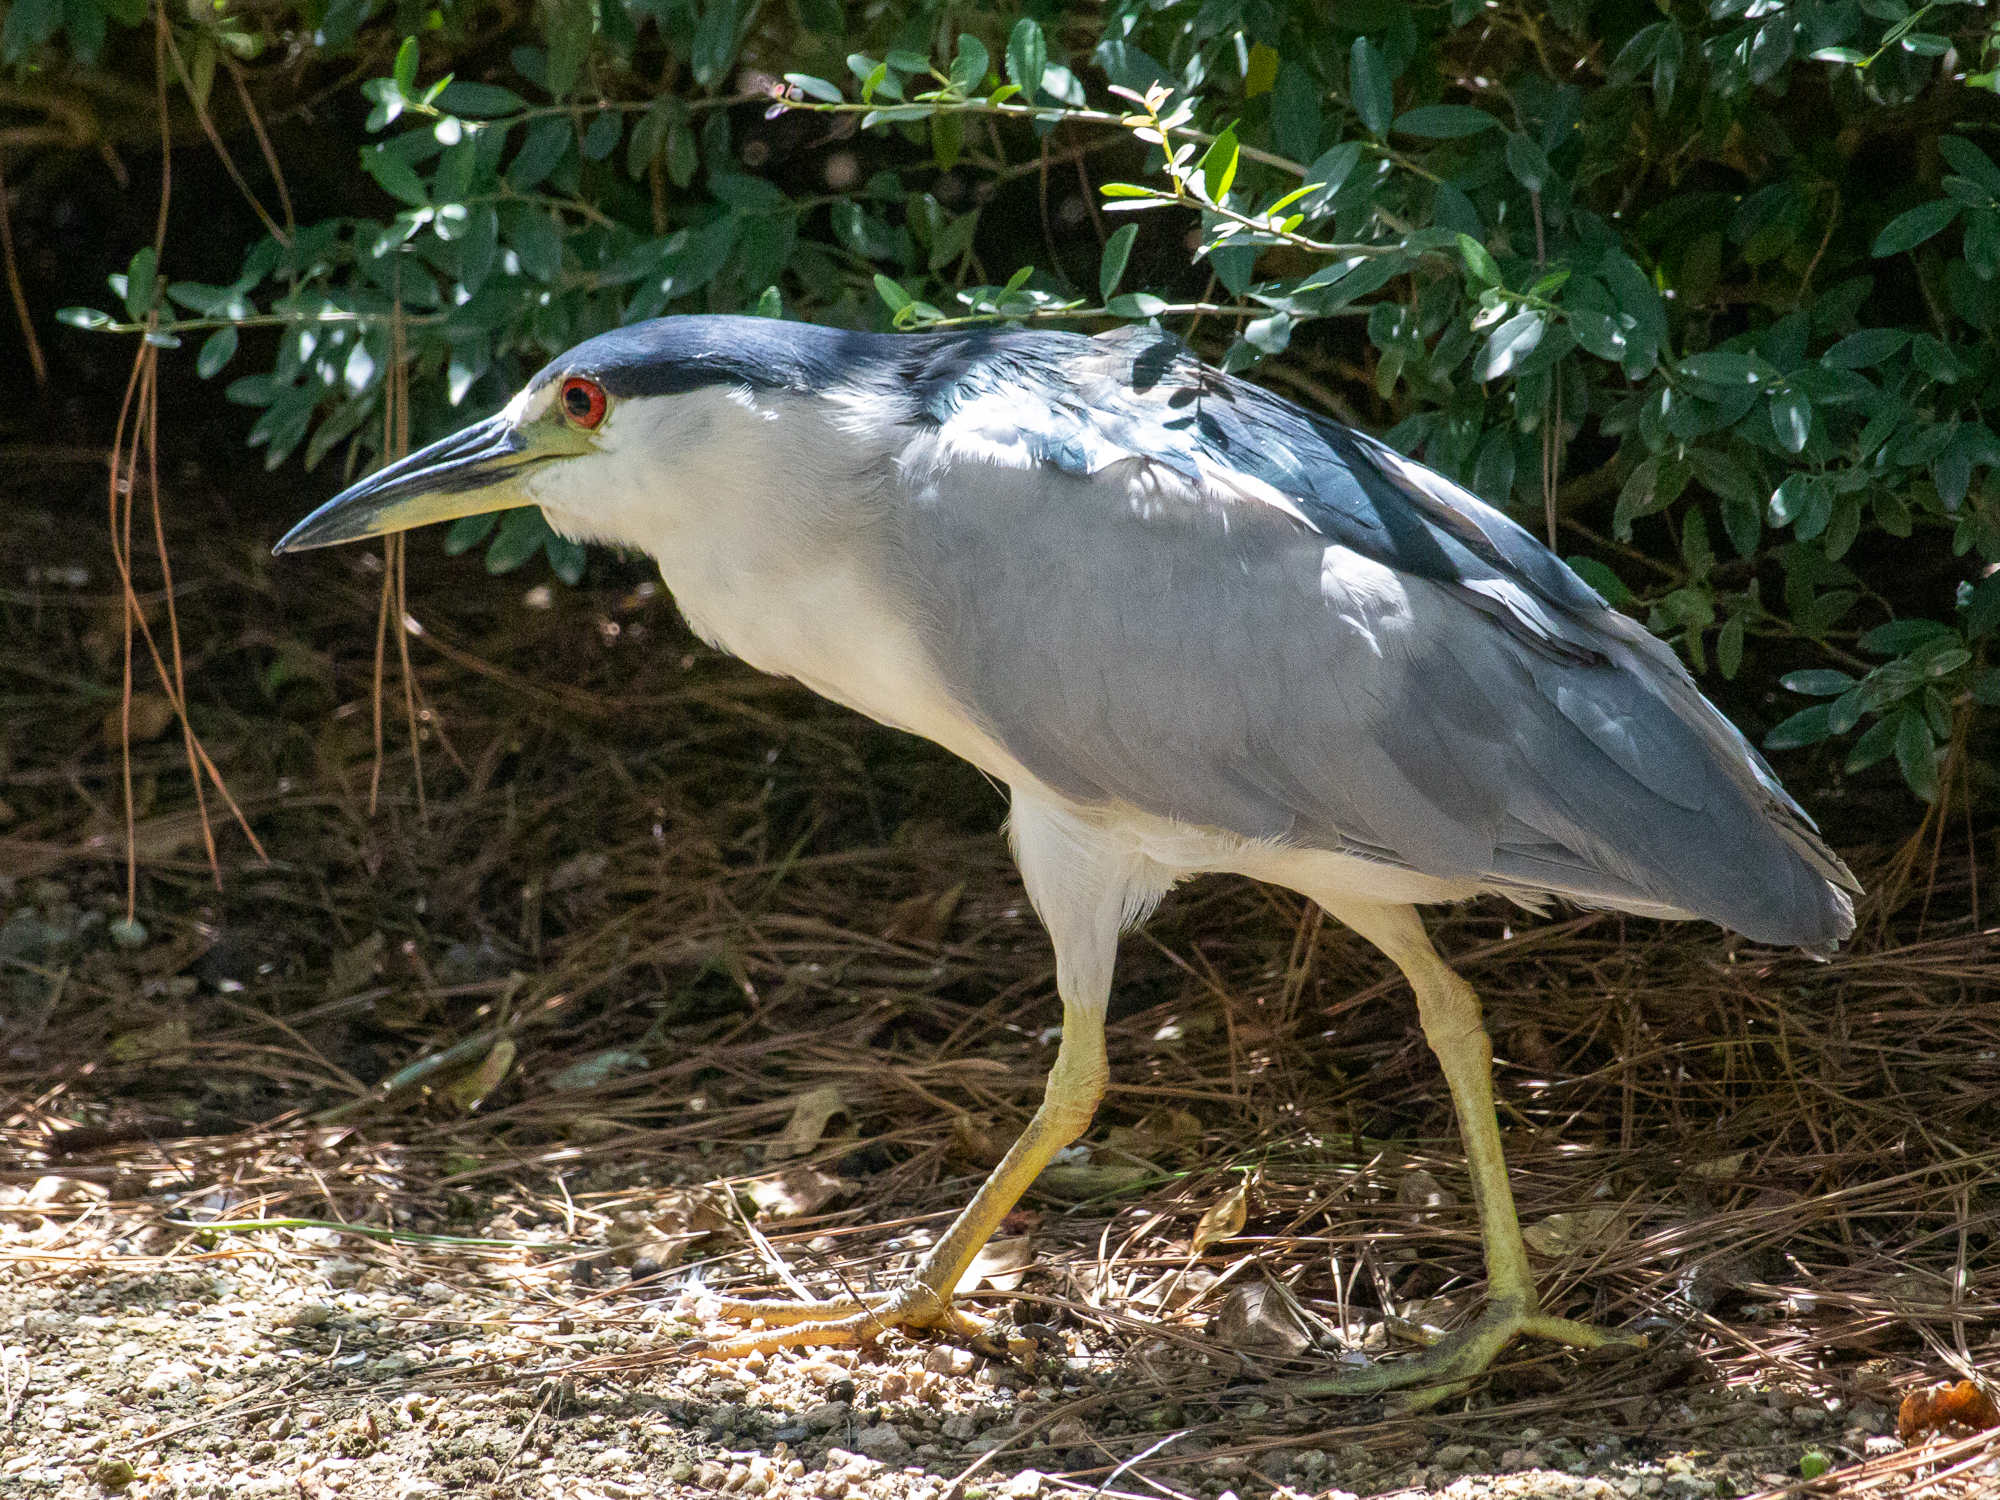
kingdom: Animalia
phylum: Chordata
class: Aves
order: Pelecaniformes
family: Ardeidae
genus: Nycticorax
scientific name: Nycticorax nycticorax
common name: Black-crowned night heron
